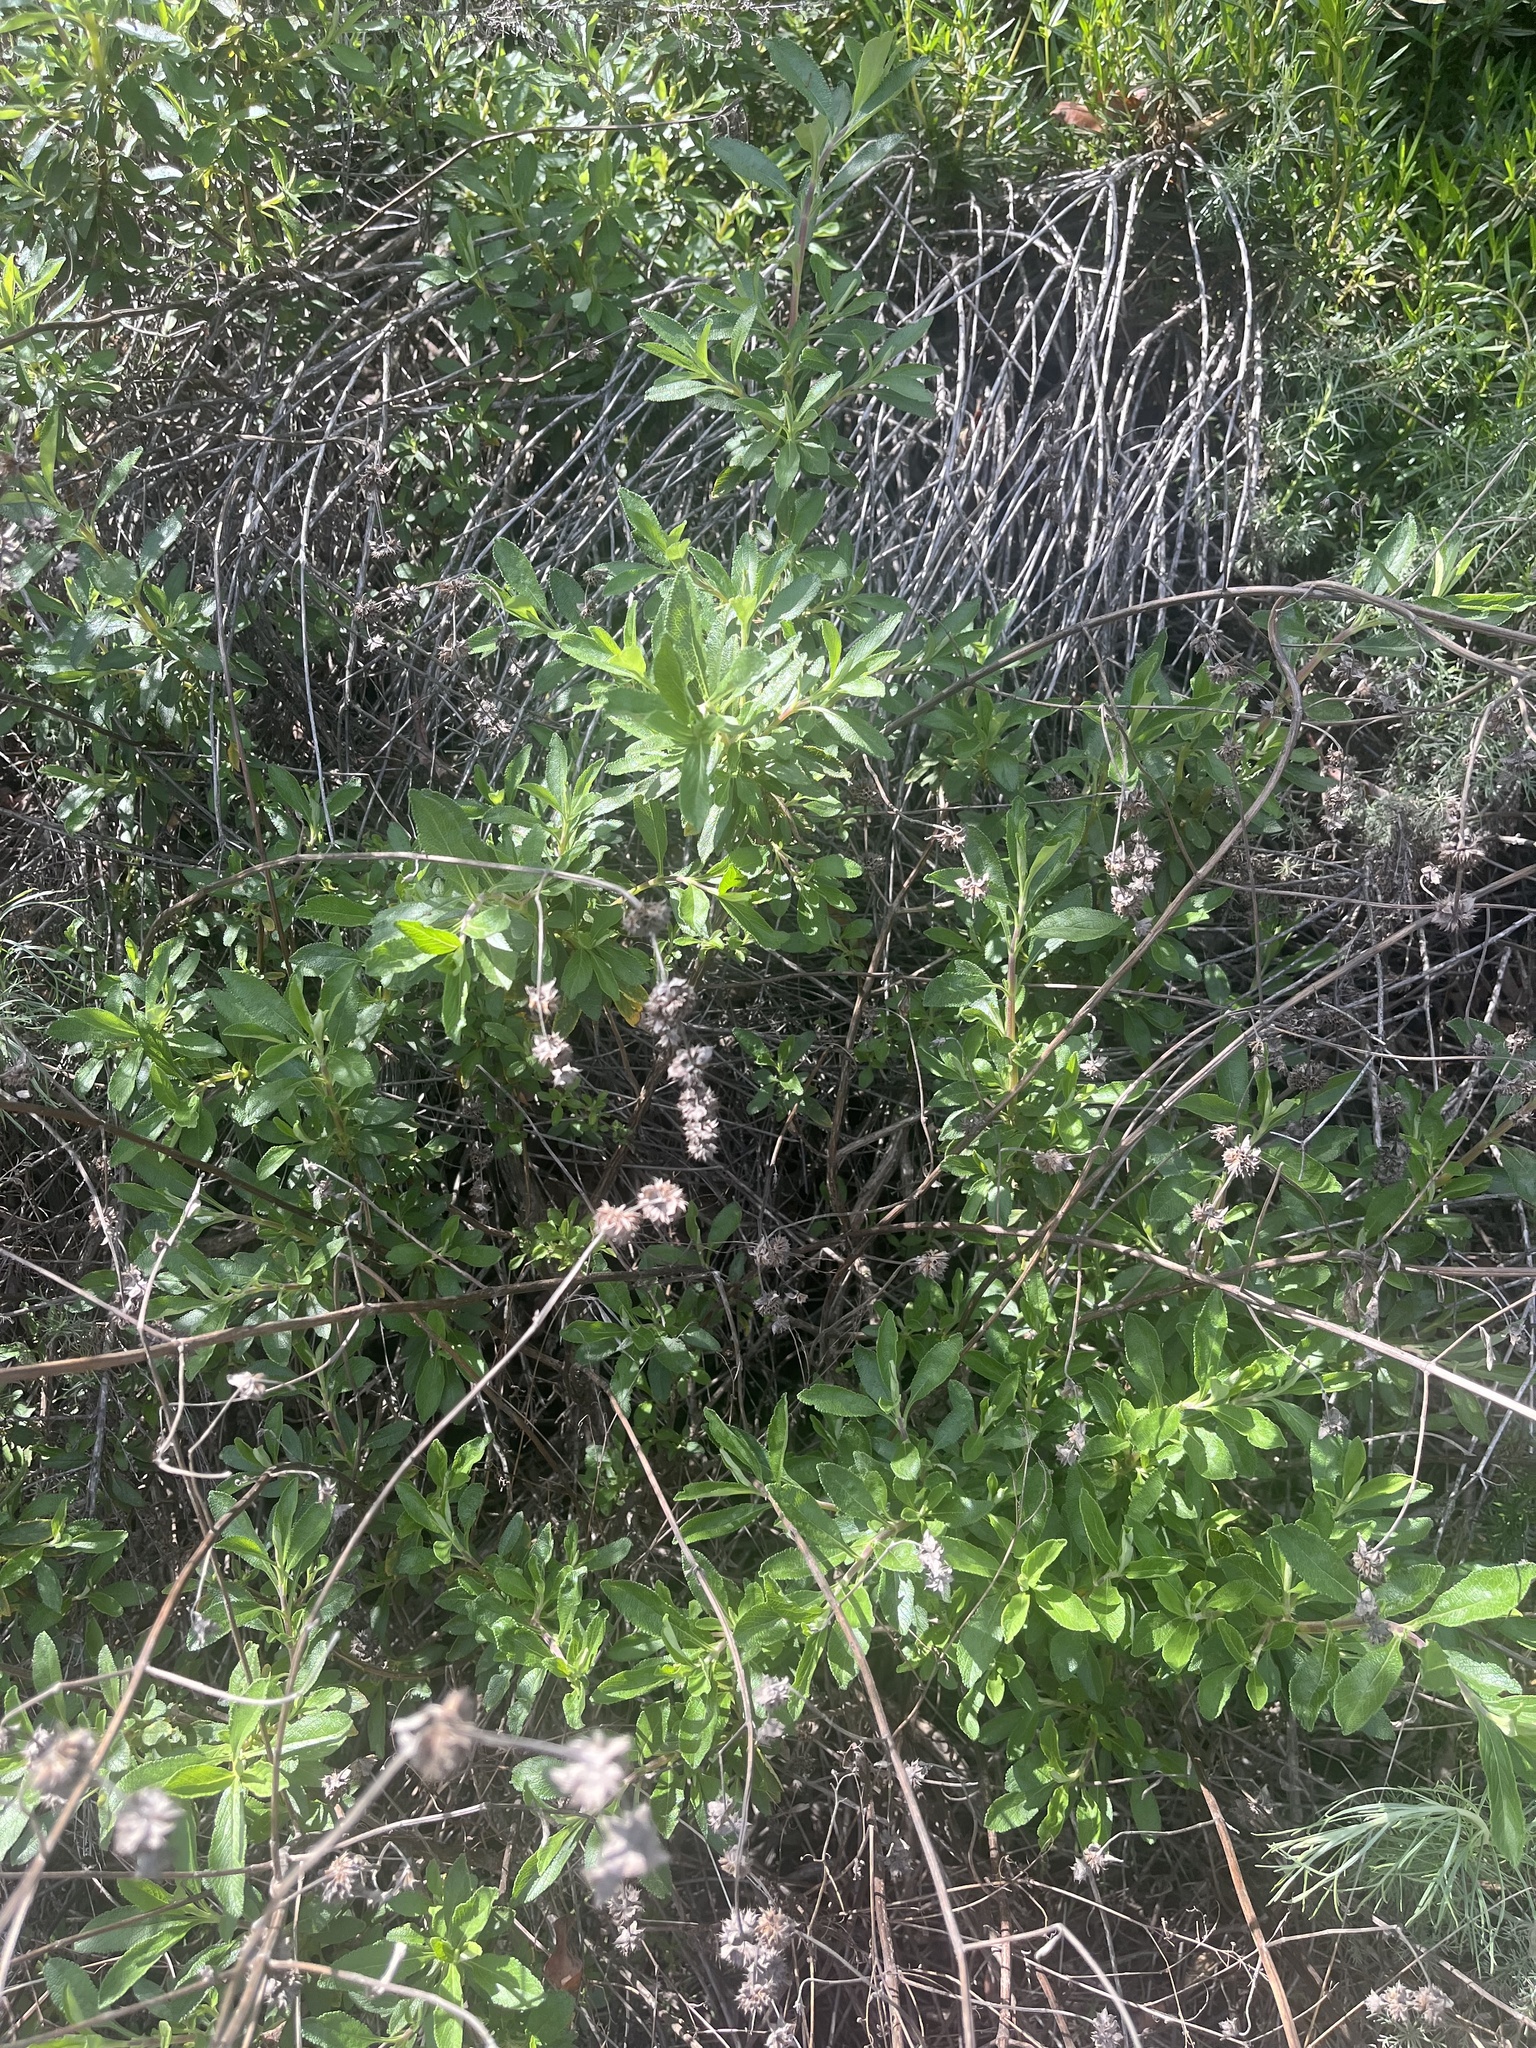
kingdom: Plantae
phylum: Tracheophyta
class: Magnoliopsida
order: Lamiales
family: Lamiaceae
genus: Salvia
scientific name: Salvia mellifera
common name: Black sage
